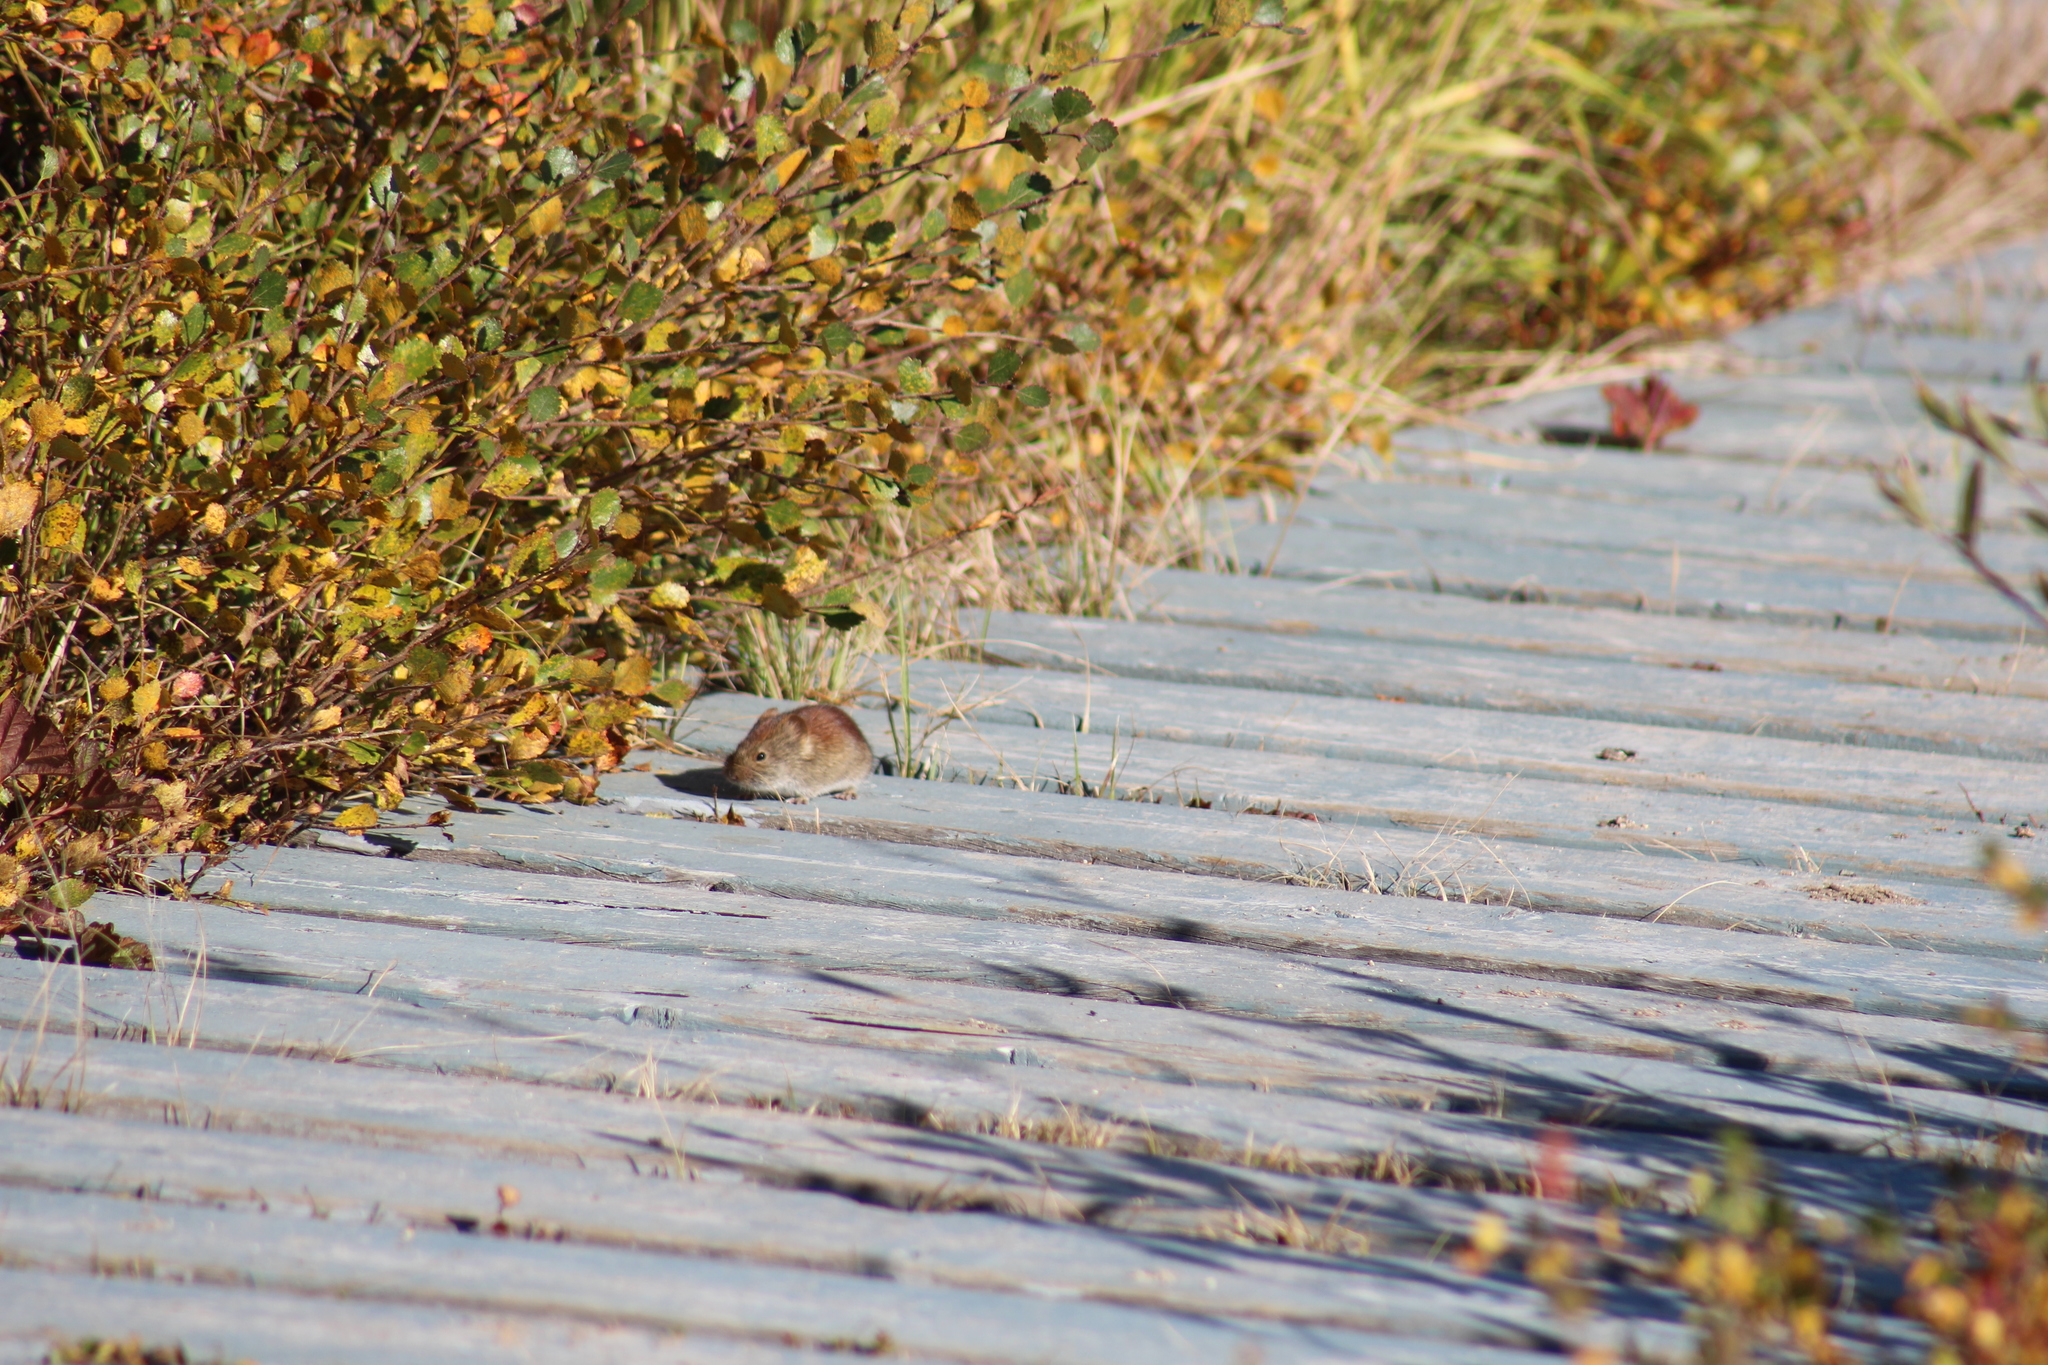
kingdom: Animalia
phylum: Chordata
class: Mammalia
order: Rodentia
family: Cricetidae
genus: Myodes
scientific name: Myodes rutilus
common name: Northern red-backed vole
